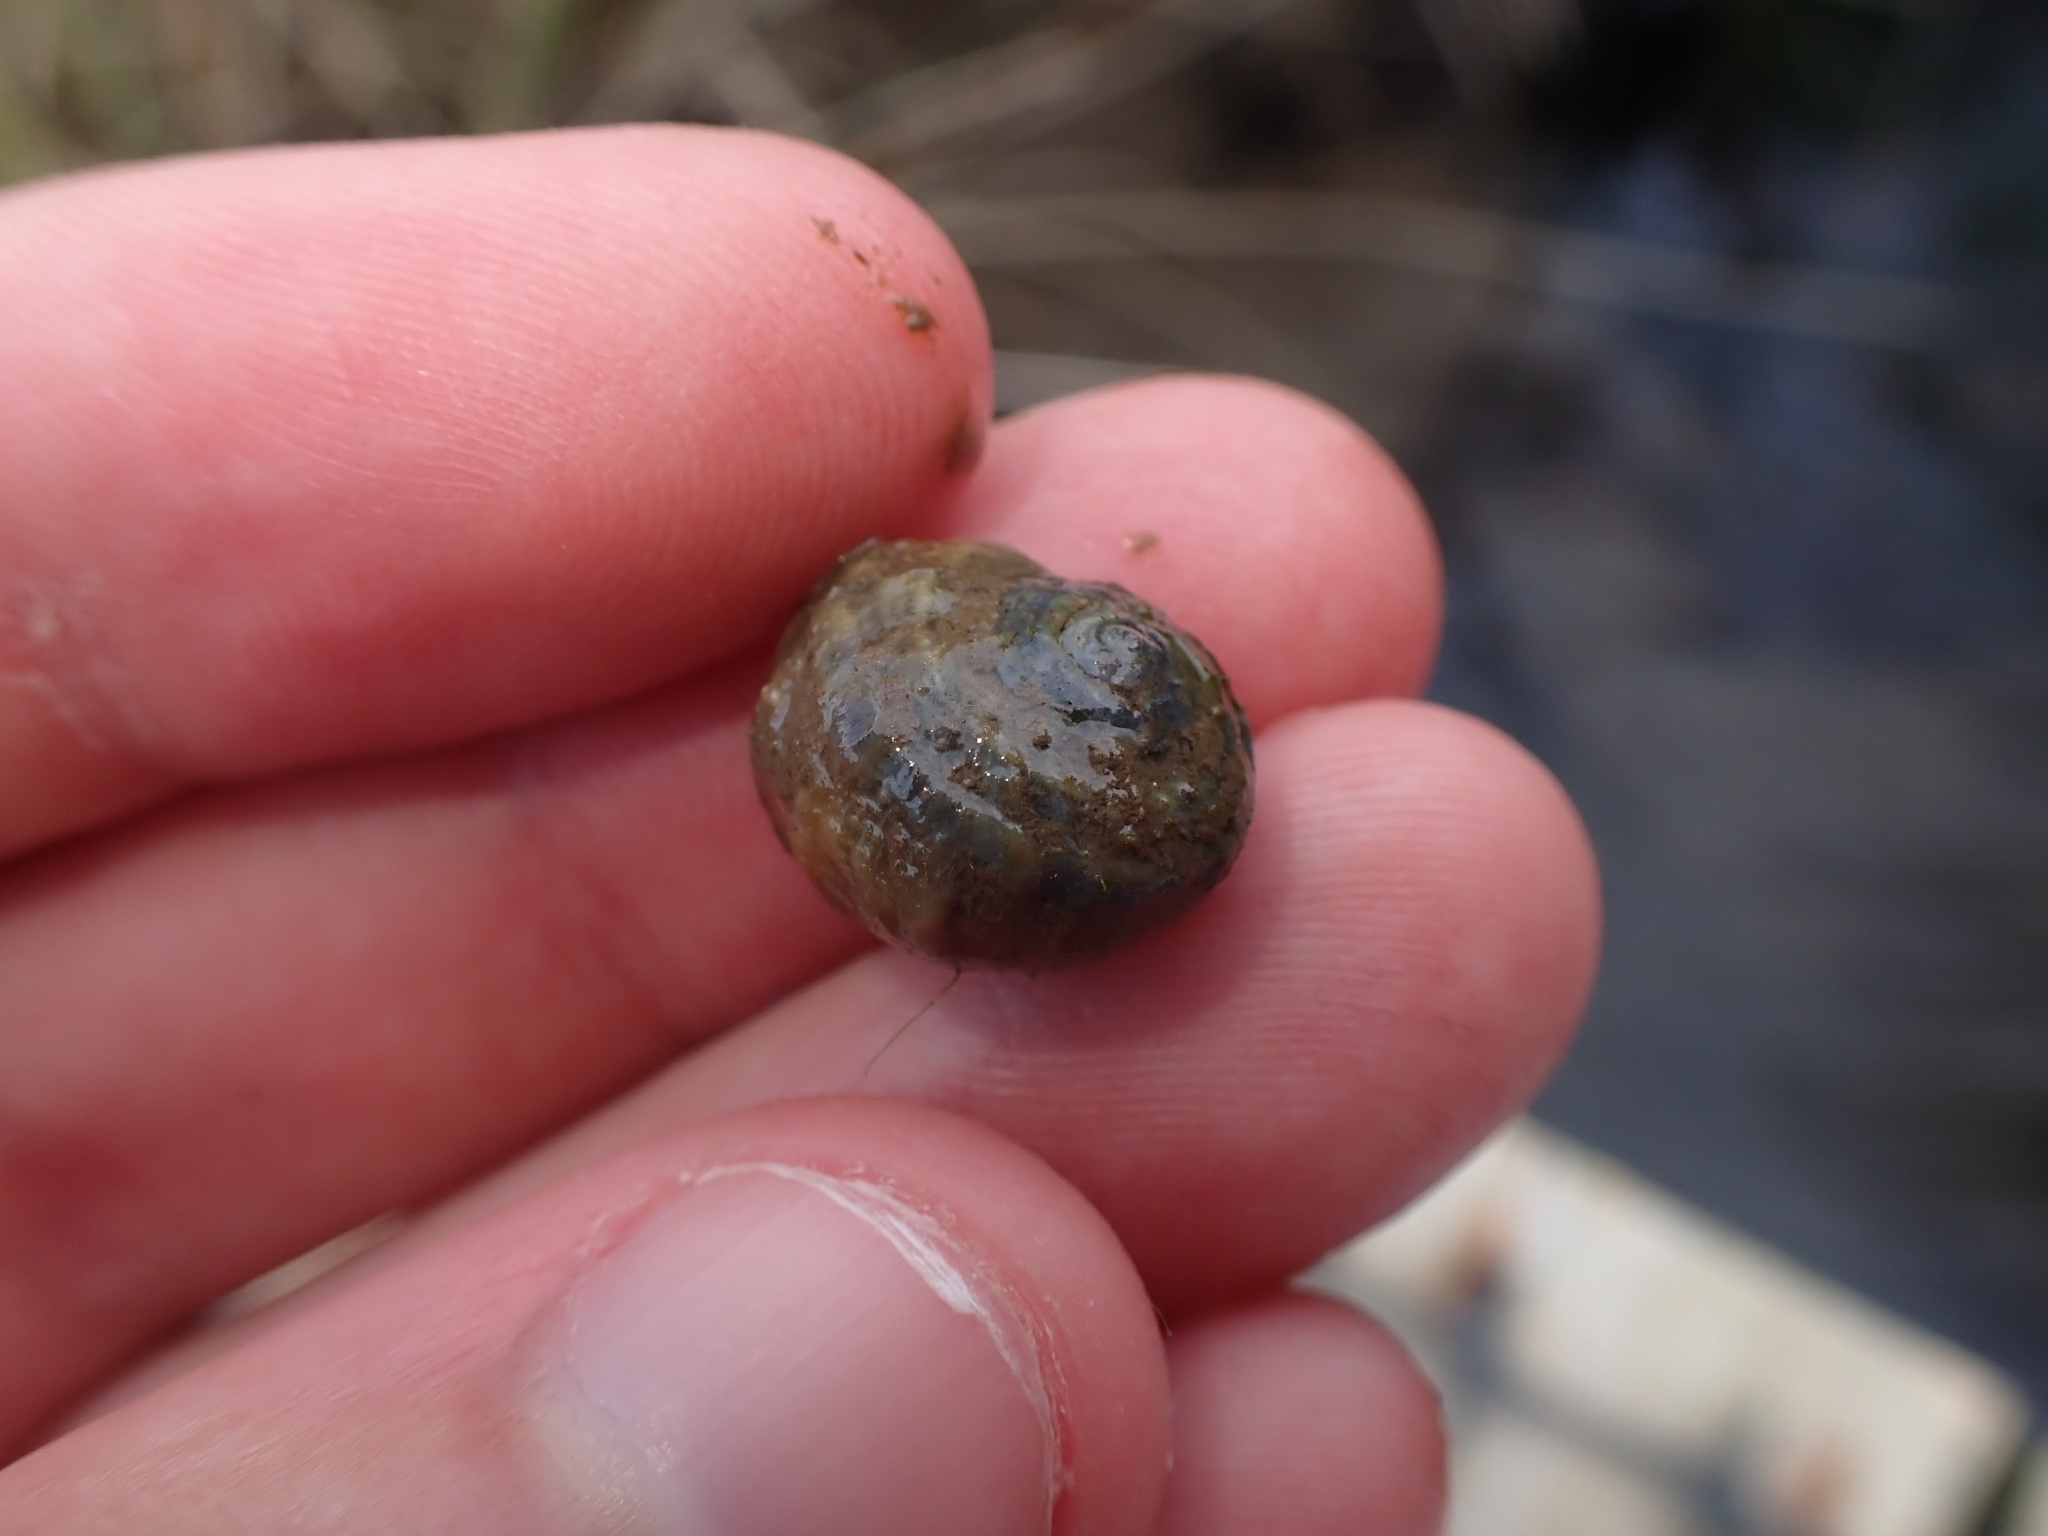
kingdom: Animalia
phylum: Mollusca
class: Gastropoda
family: Amphibolidae
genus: Amphibola
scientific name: Amphibola crenata
